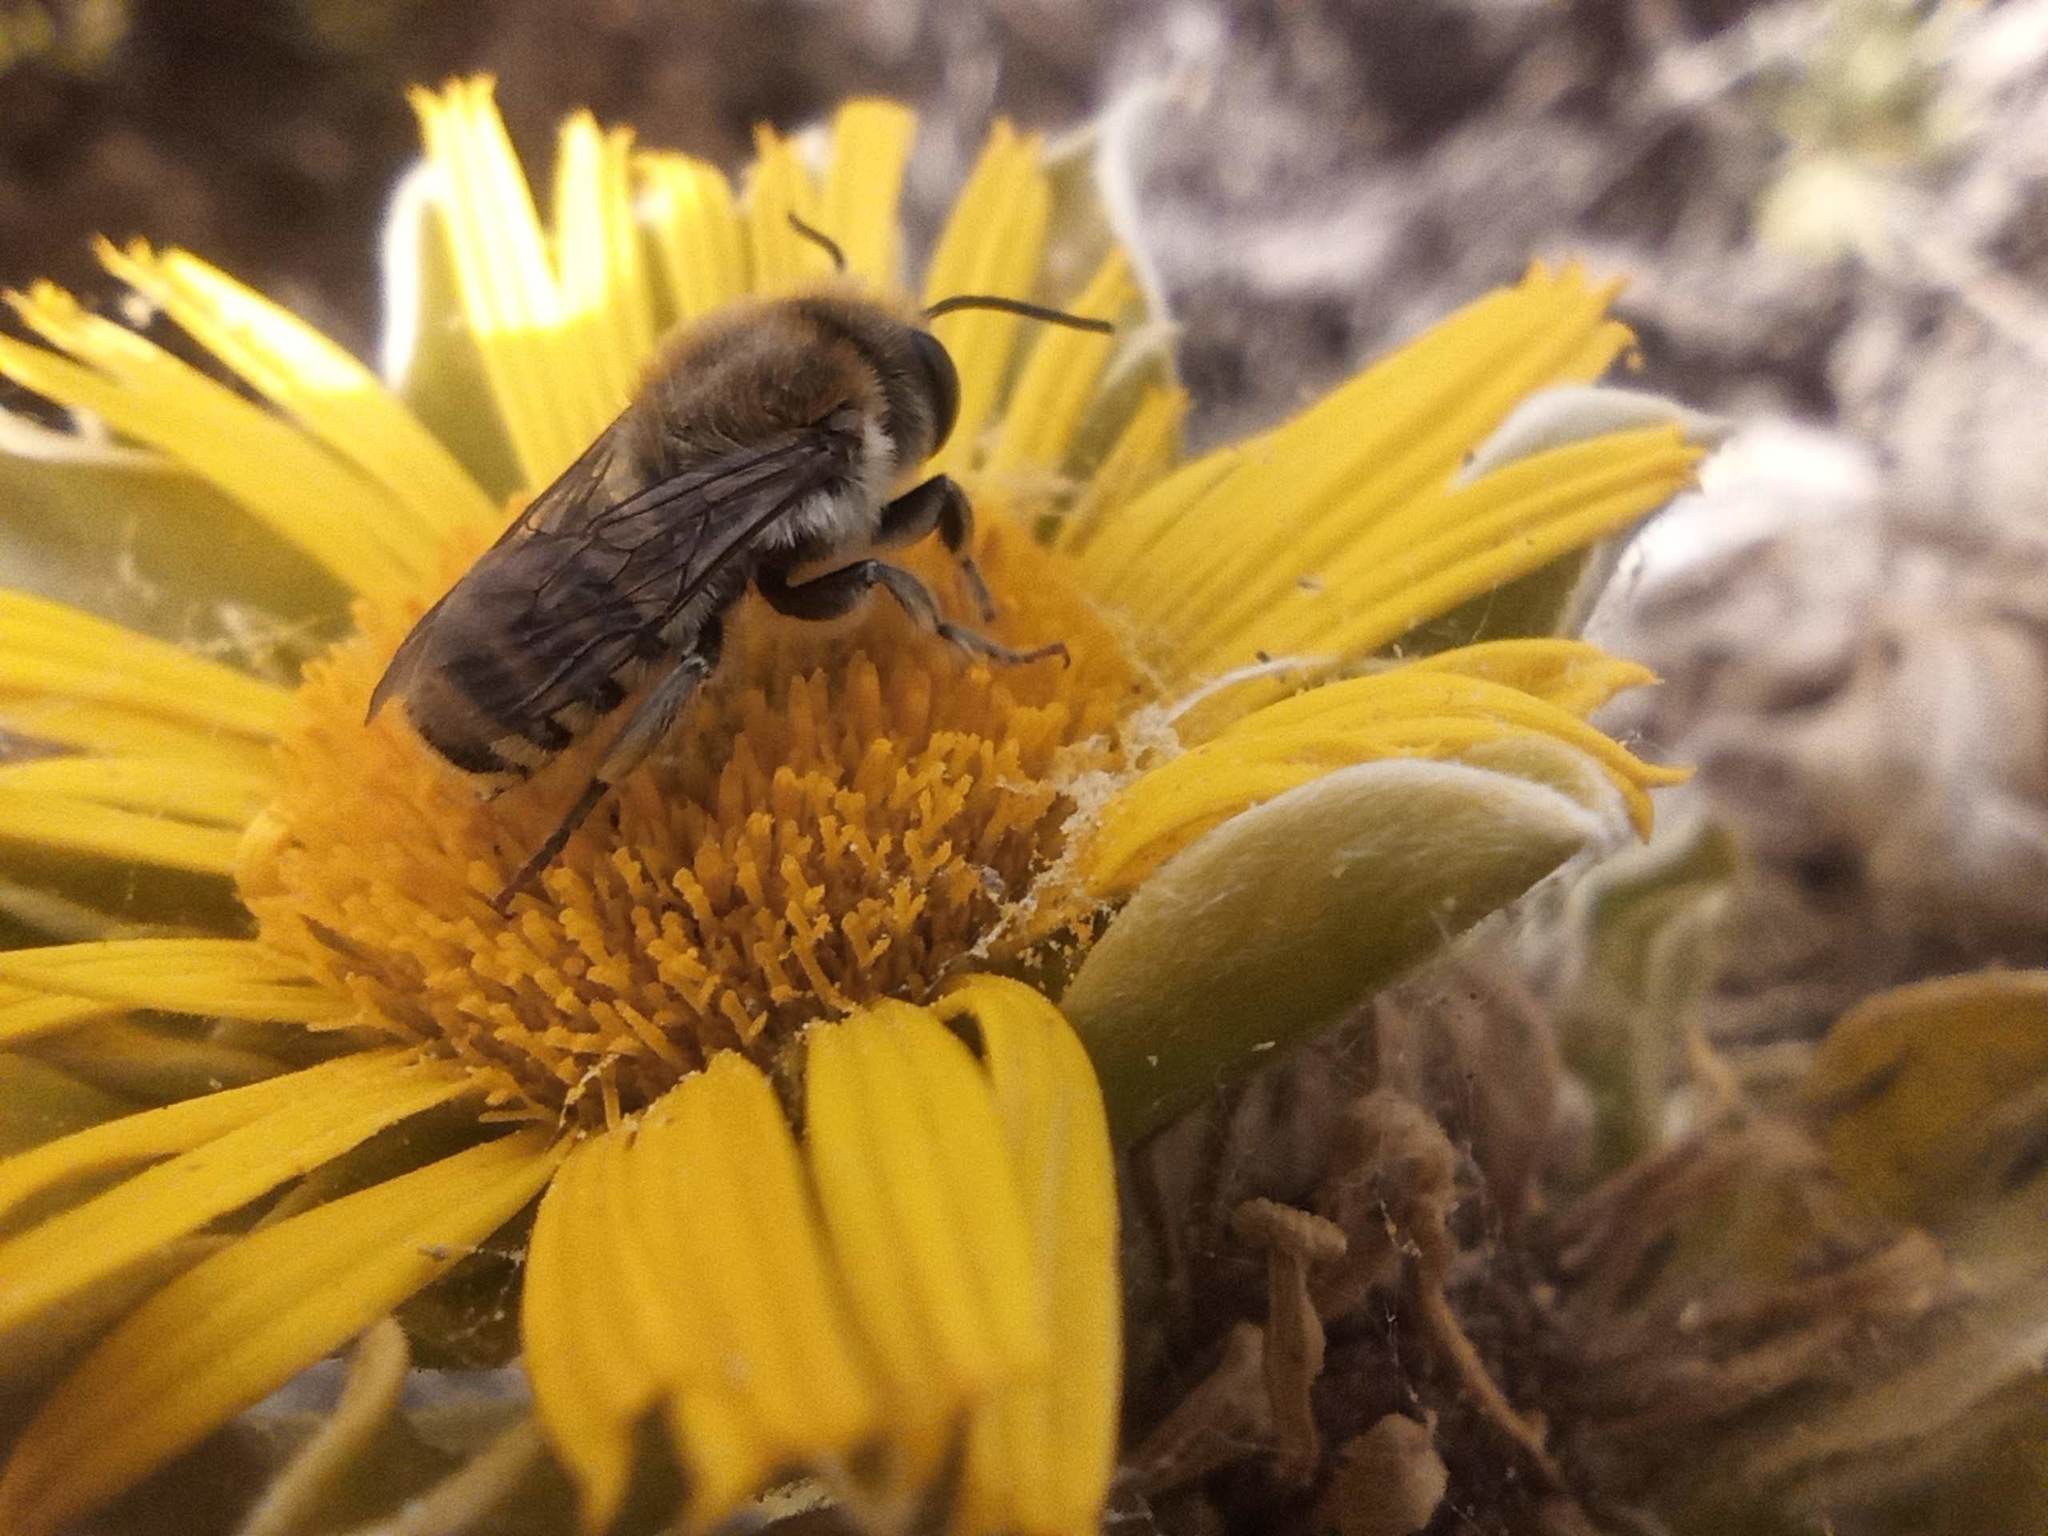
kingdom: Animalia
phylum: Arthropoda
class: Insecta
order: Hymenoptera
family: Megachilidae
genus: Megachile
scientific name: Megachile binominata
